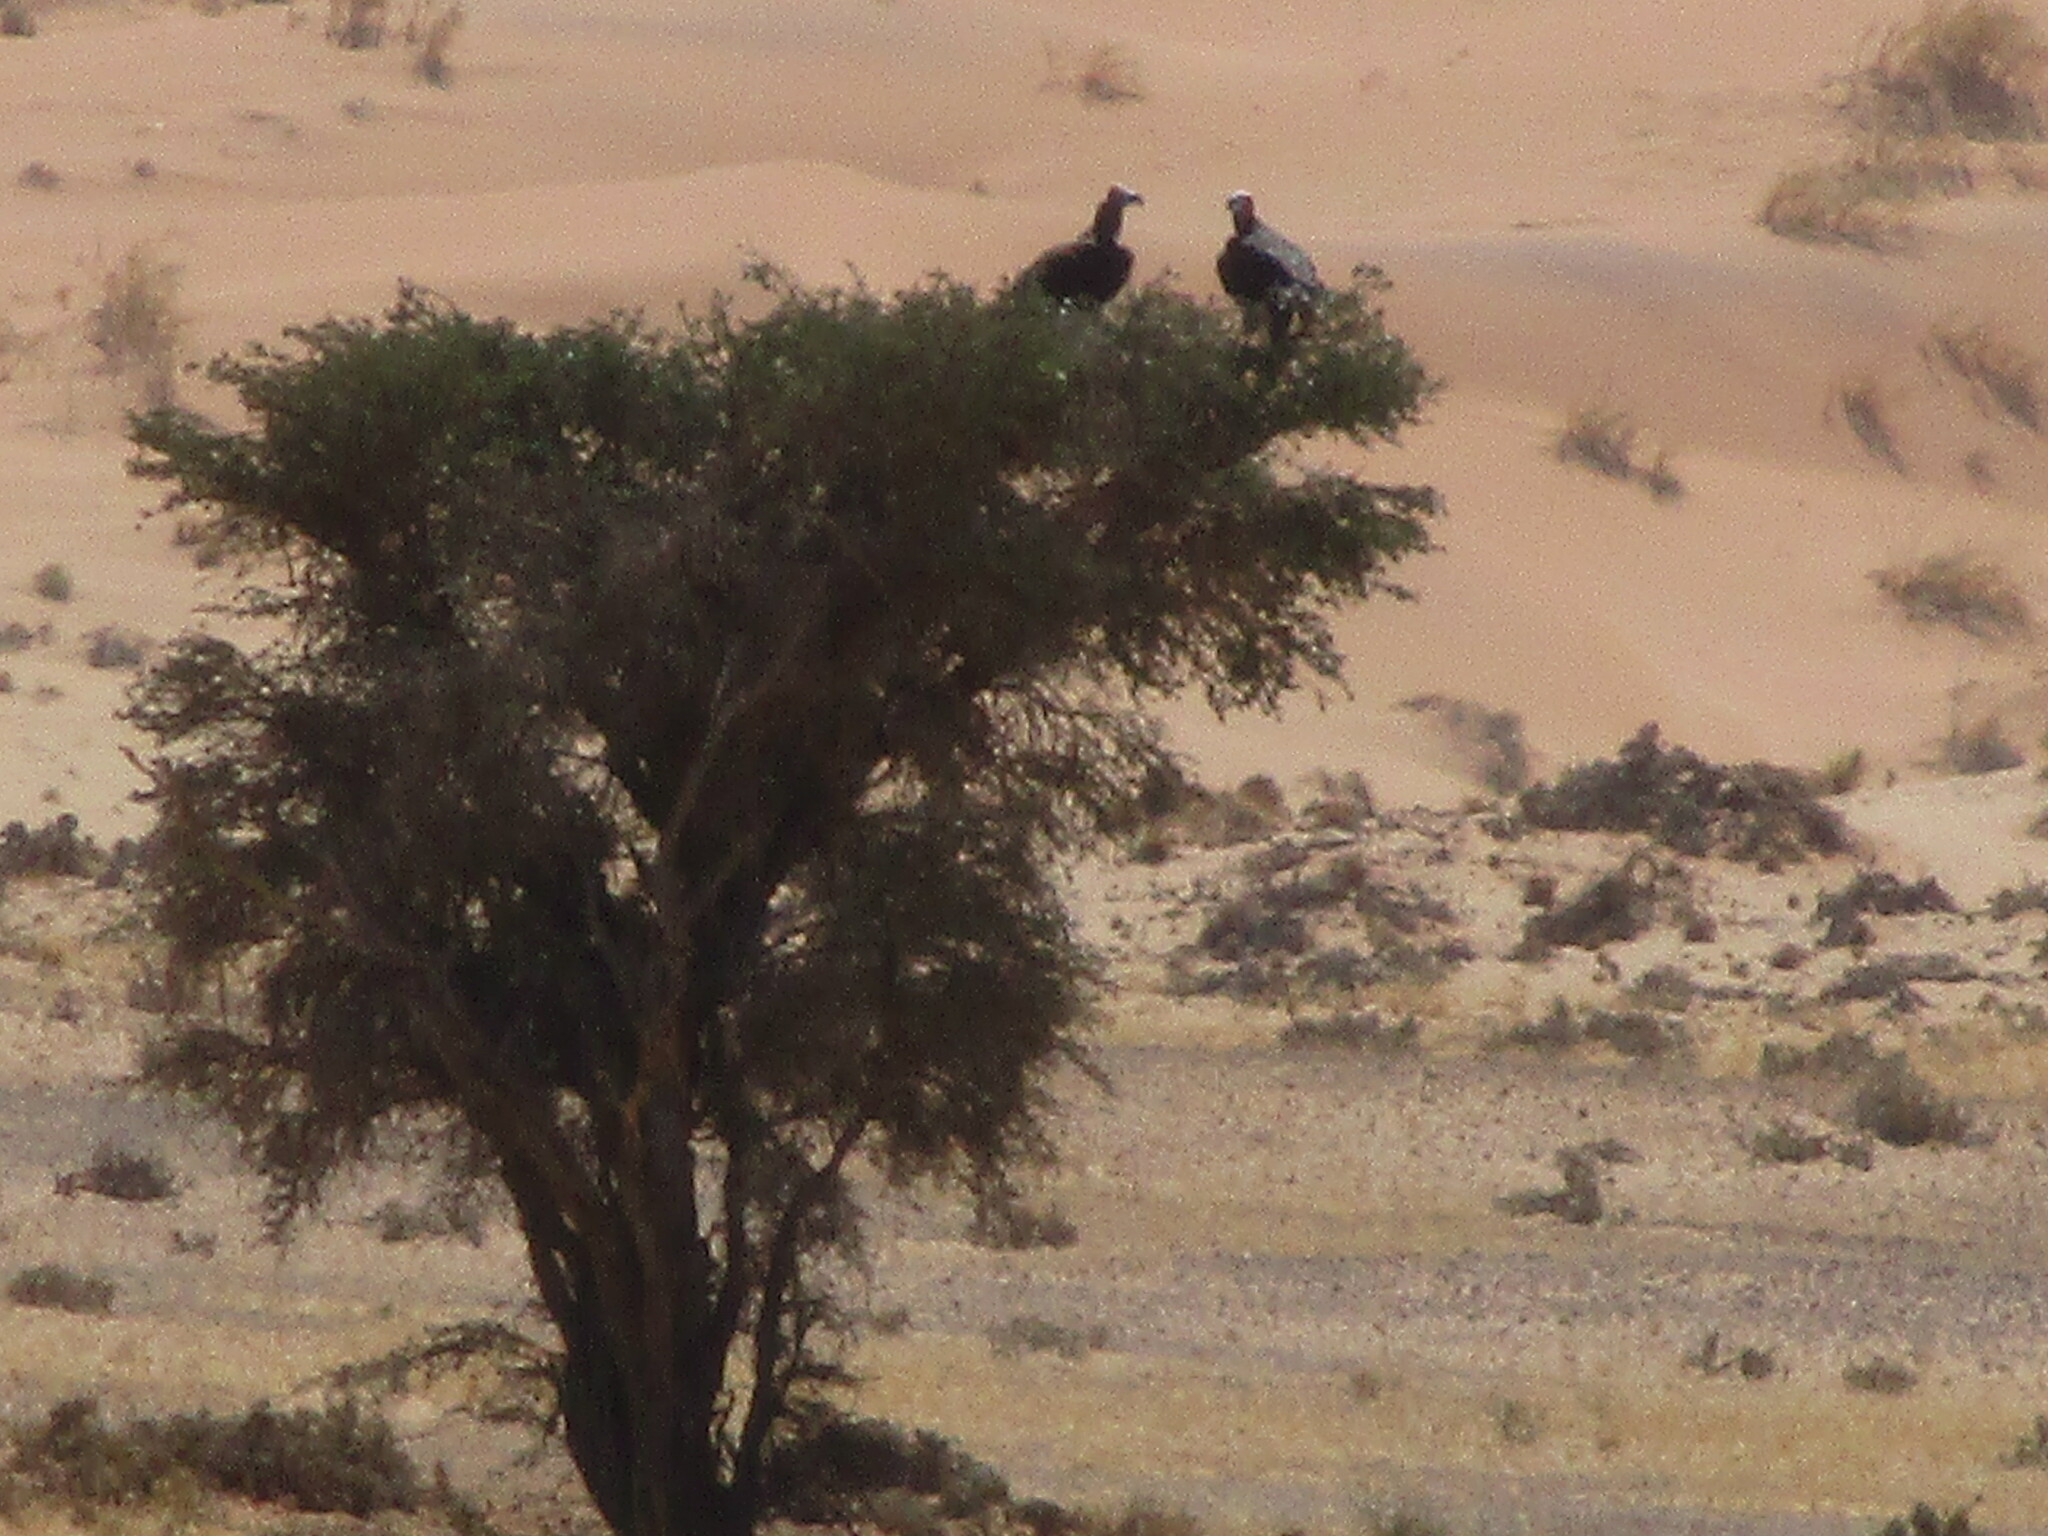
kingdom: Animalia
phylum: Chordata
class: Aves
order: Accipitriformes
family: Accipitridae
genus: Torgos
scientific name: Torgos tracheliotos
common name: Lappet-faced vulture
